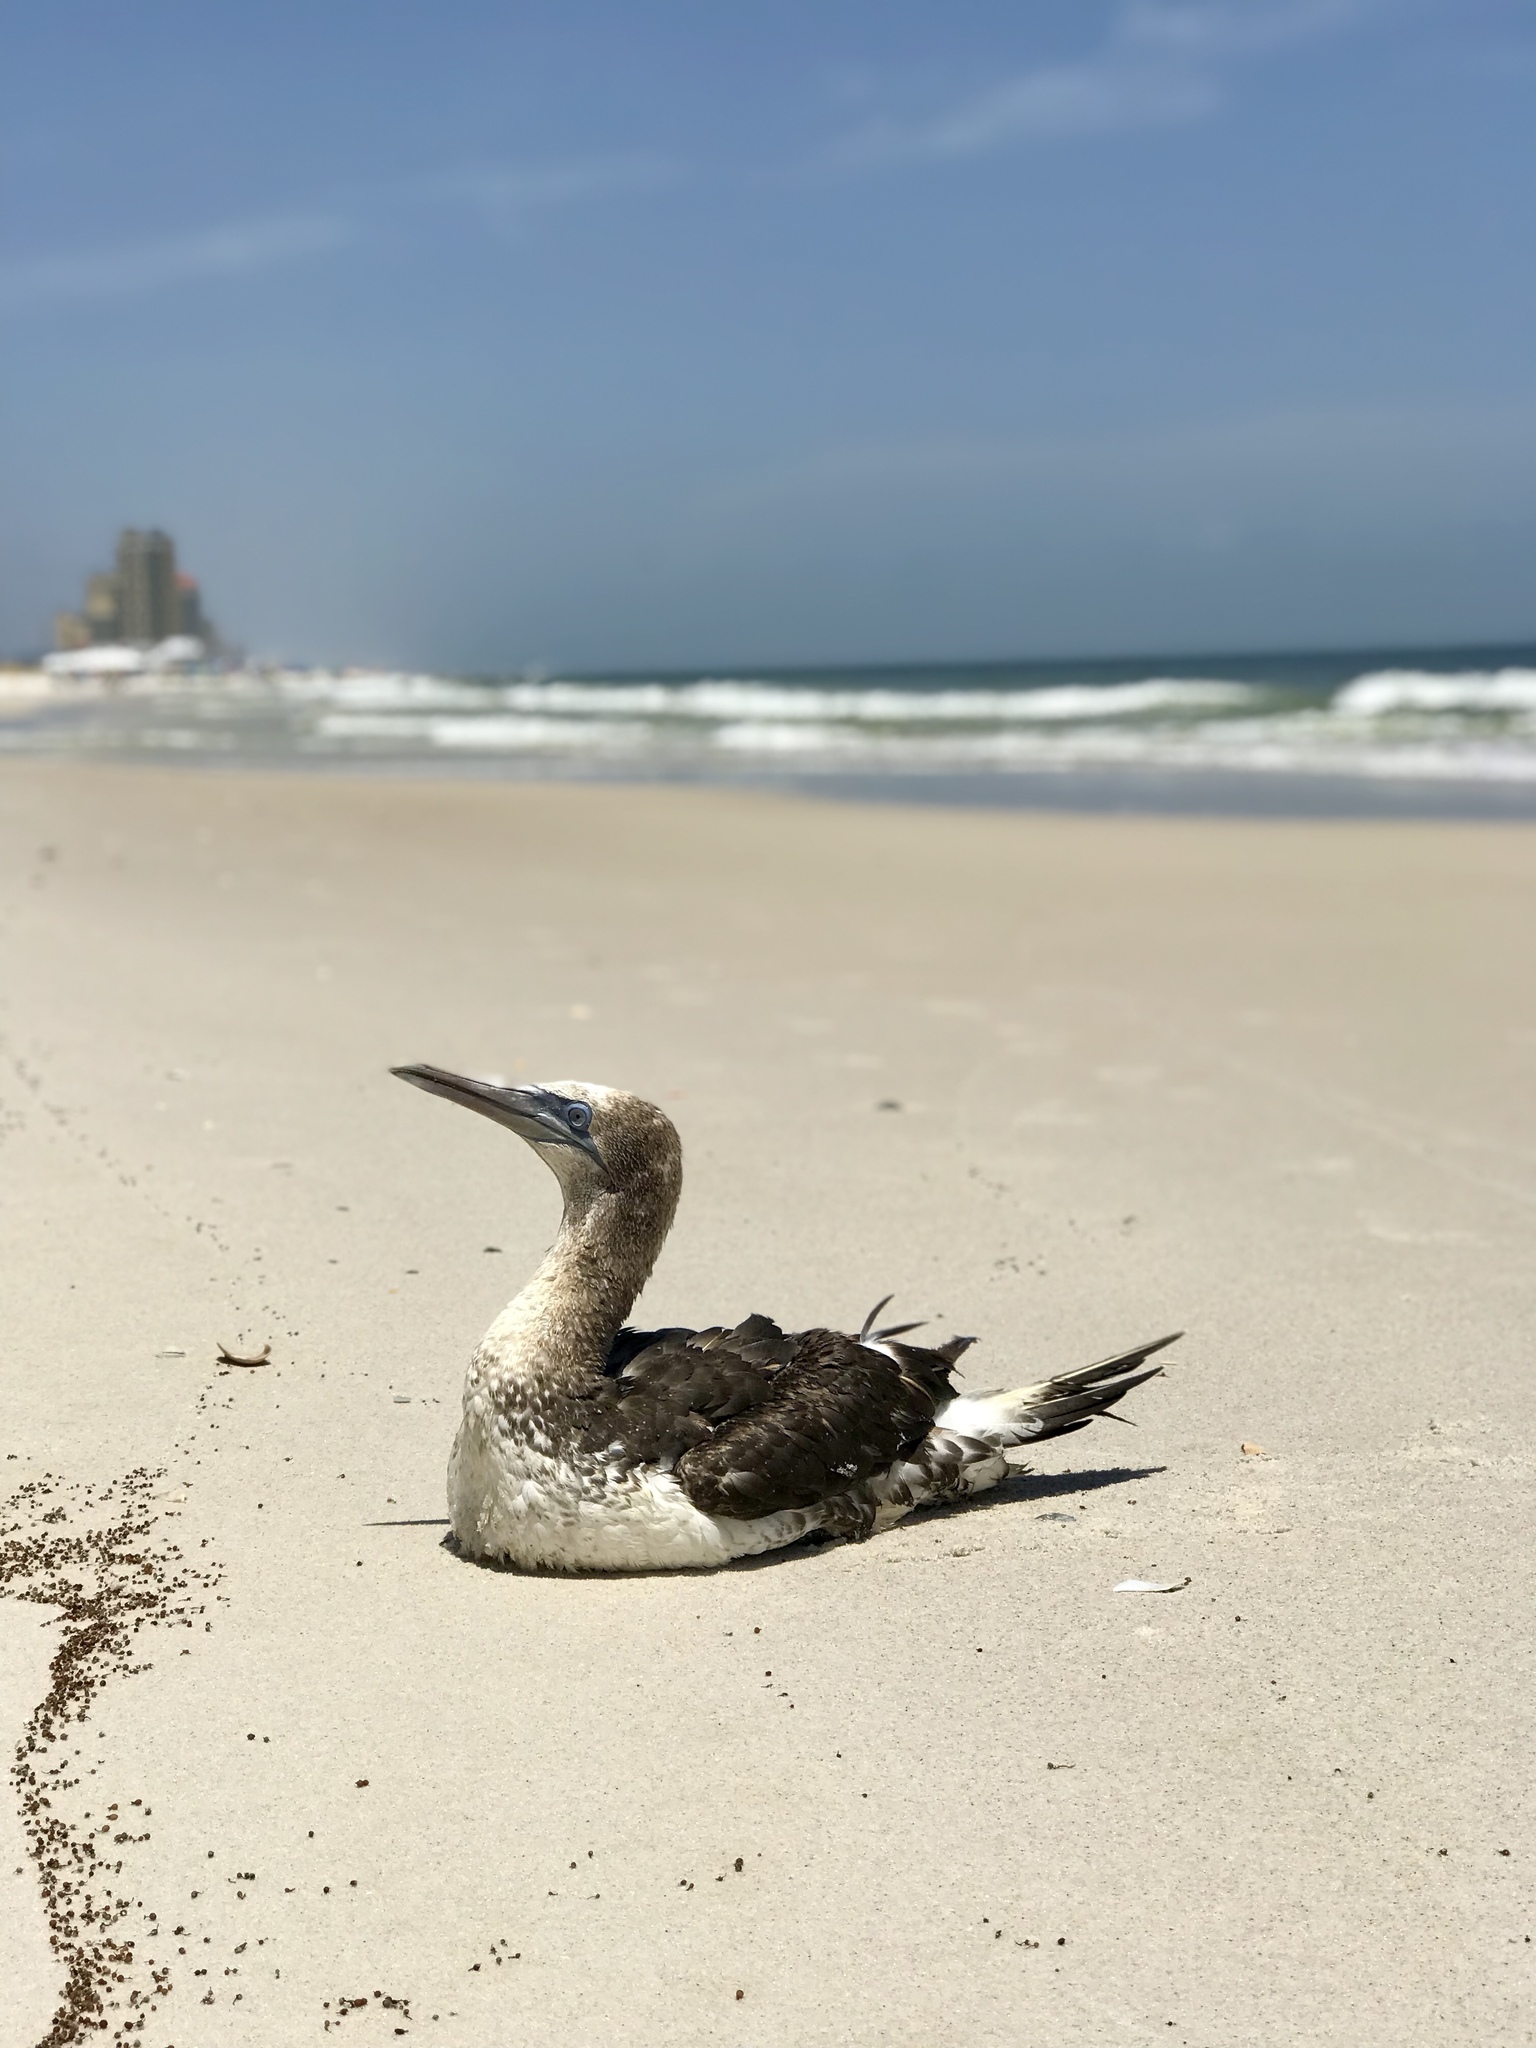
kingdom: Animalia
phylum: Chordata
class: Aves
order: Suliformes
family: Sulidae
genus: Morus
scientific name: Morus bassanus
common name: Northern gannet
